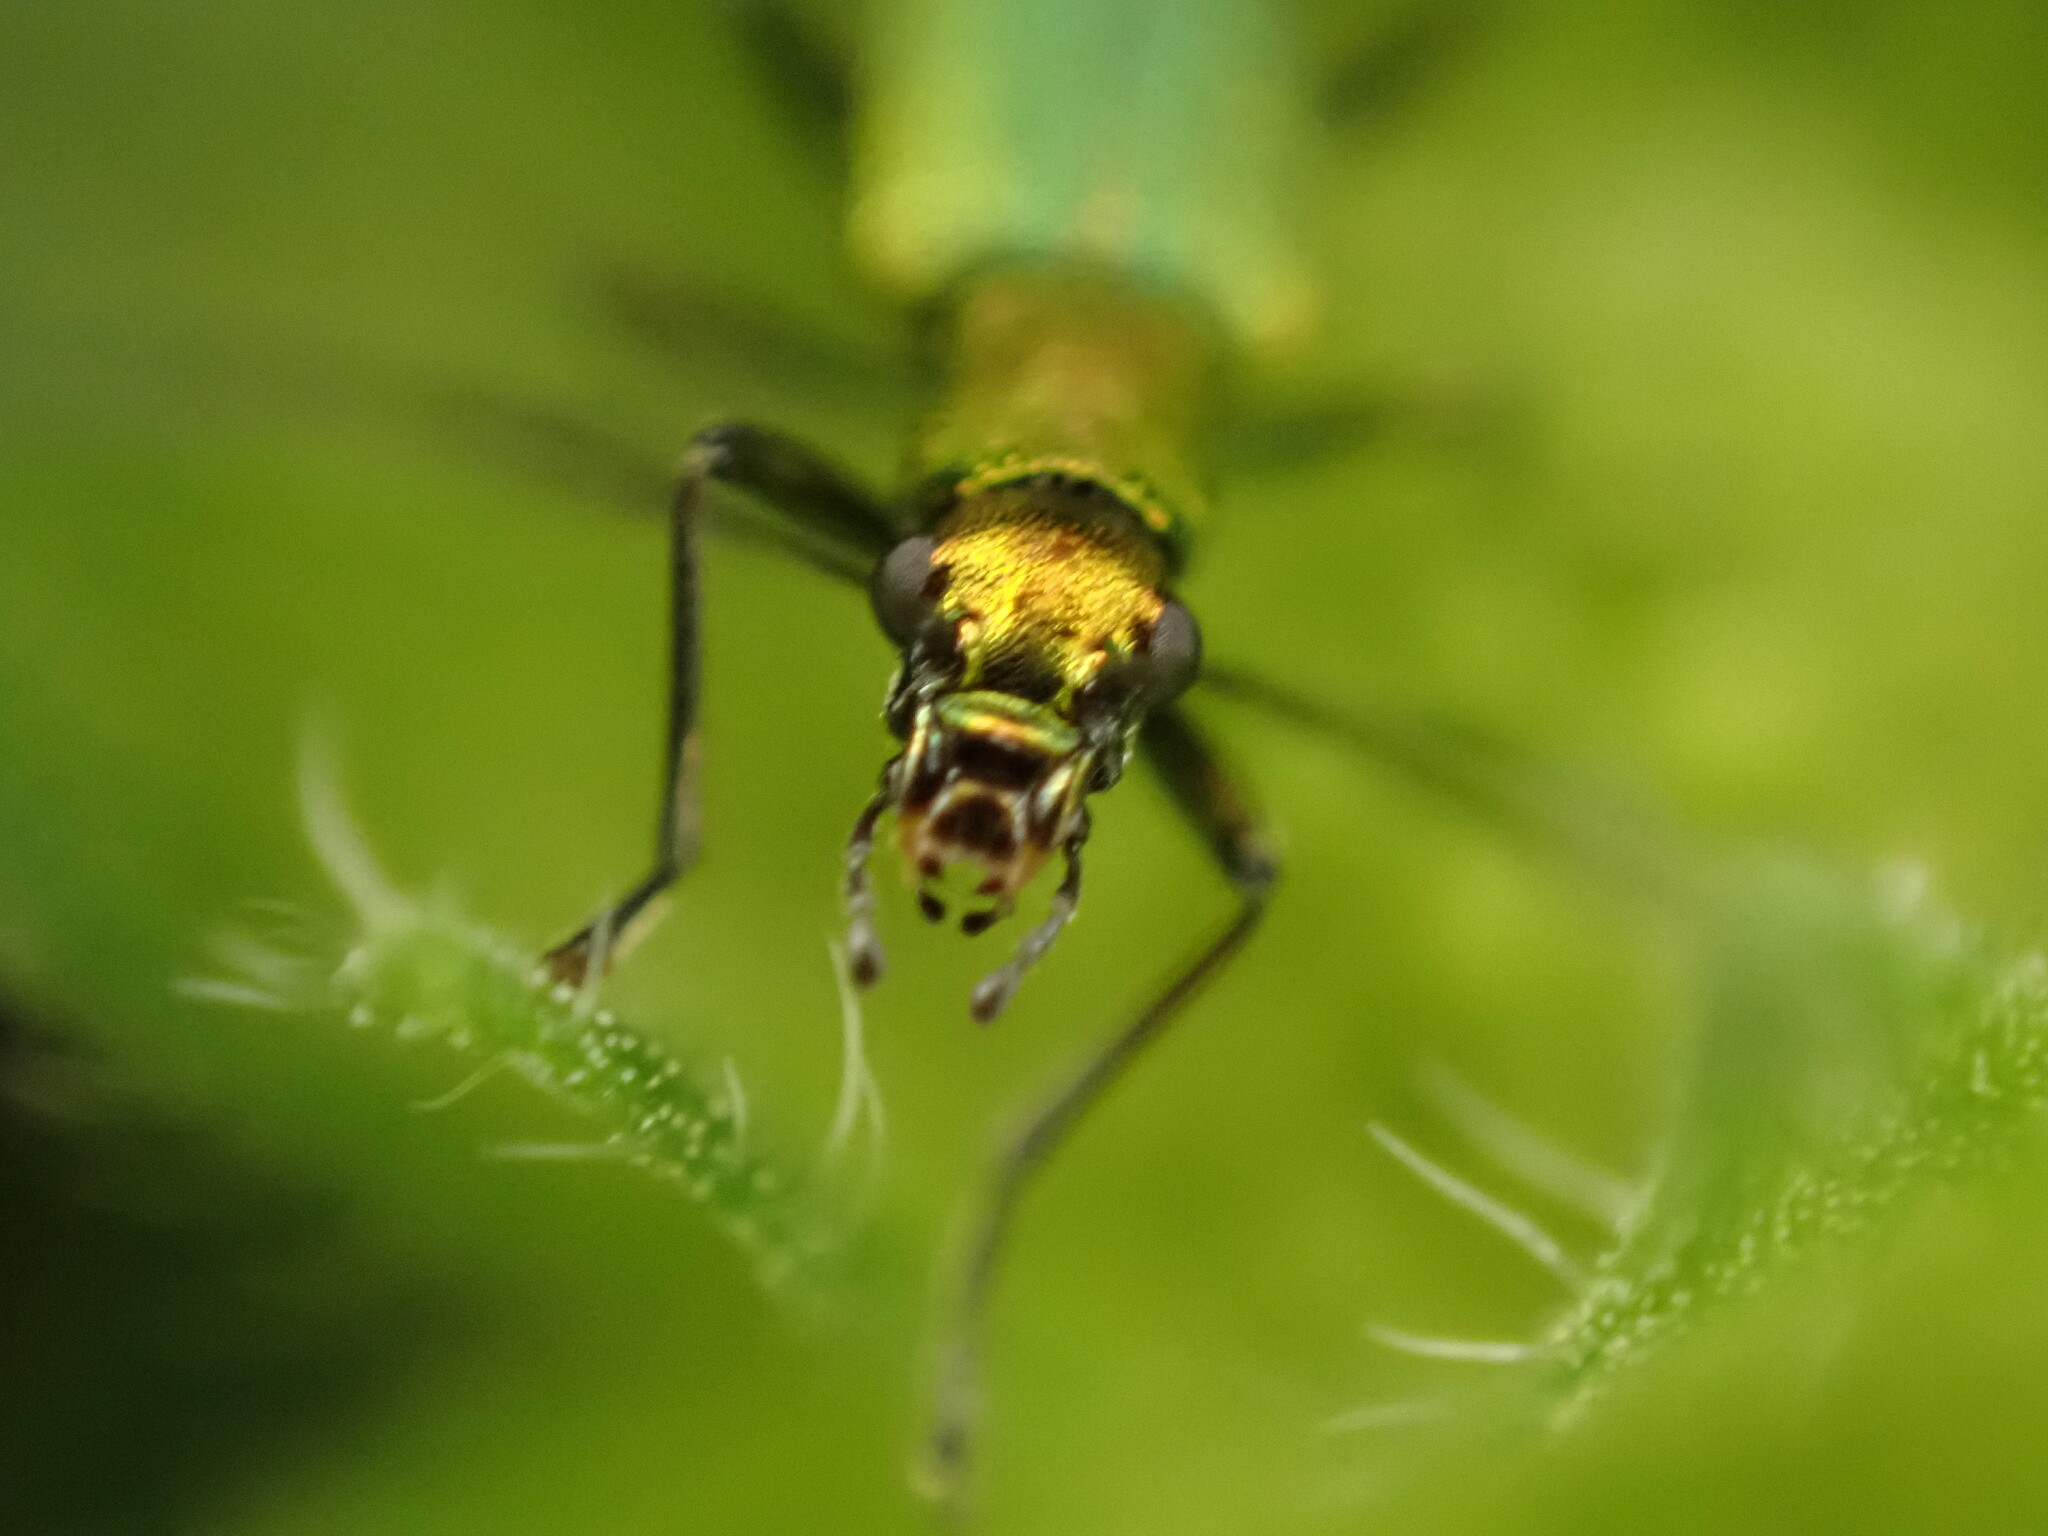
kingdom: Animalia
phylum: Arthropoda
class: Insecta
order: Coleoptera
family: Oedemeridae
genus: Chrysanthia
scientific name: Chrysanthia viridissima
